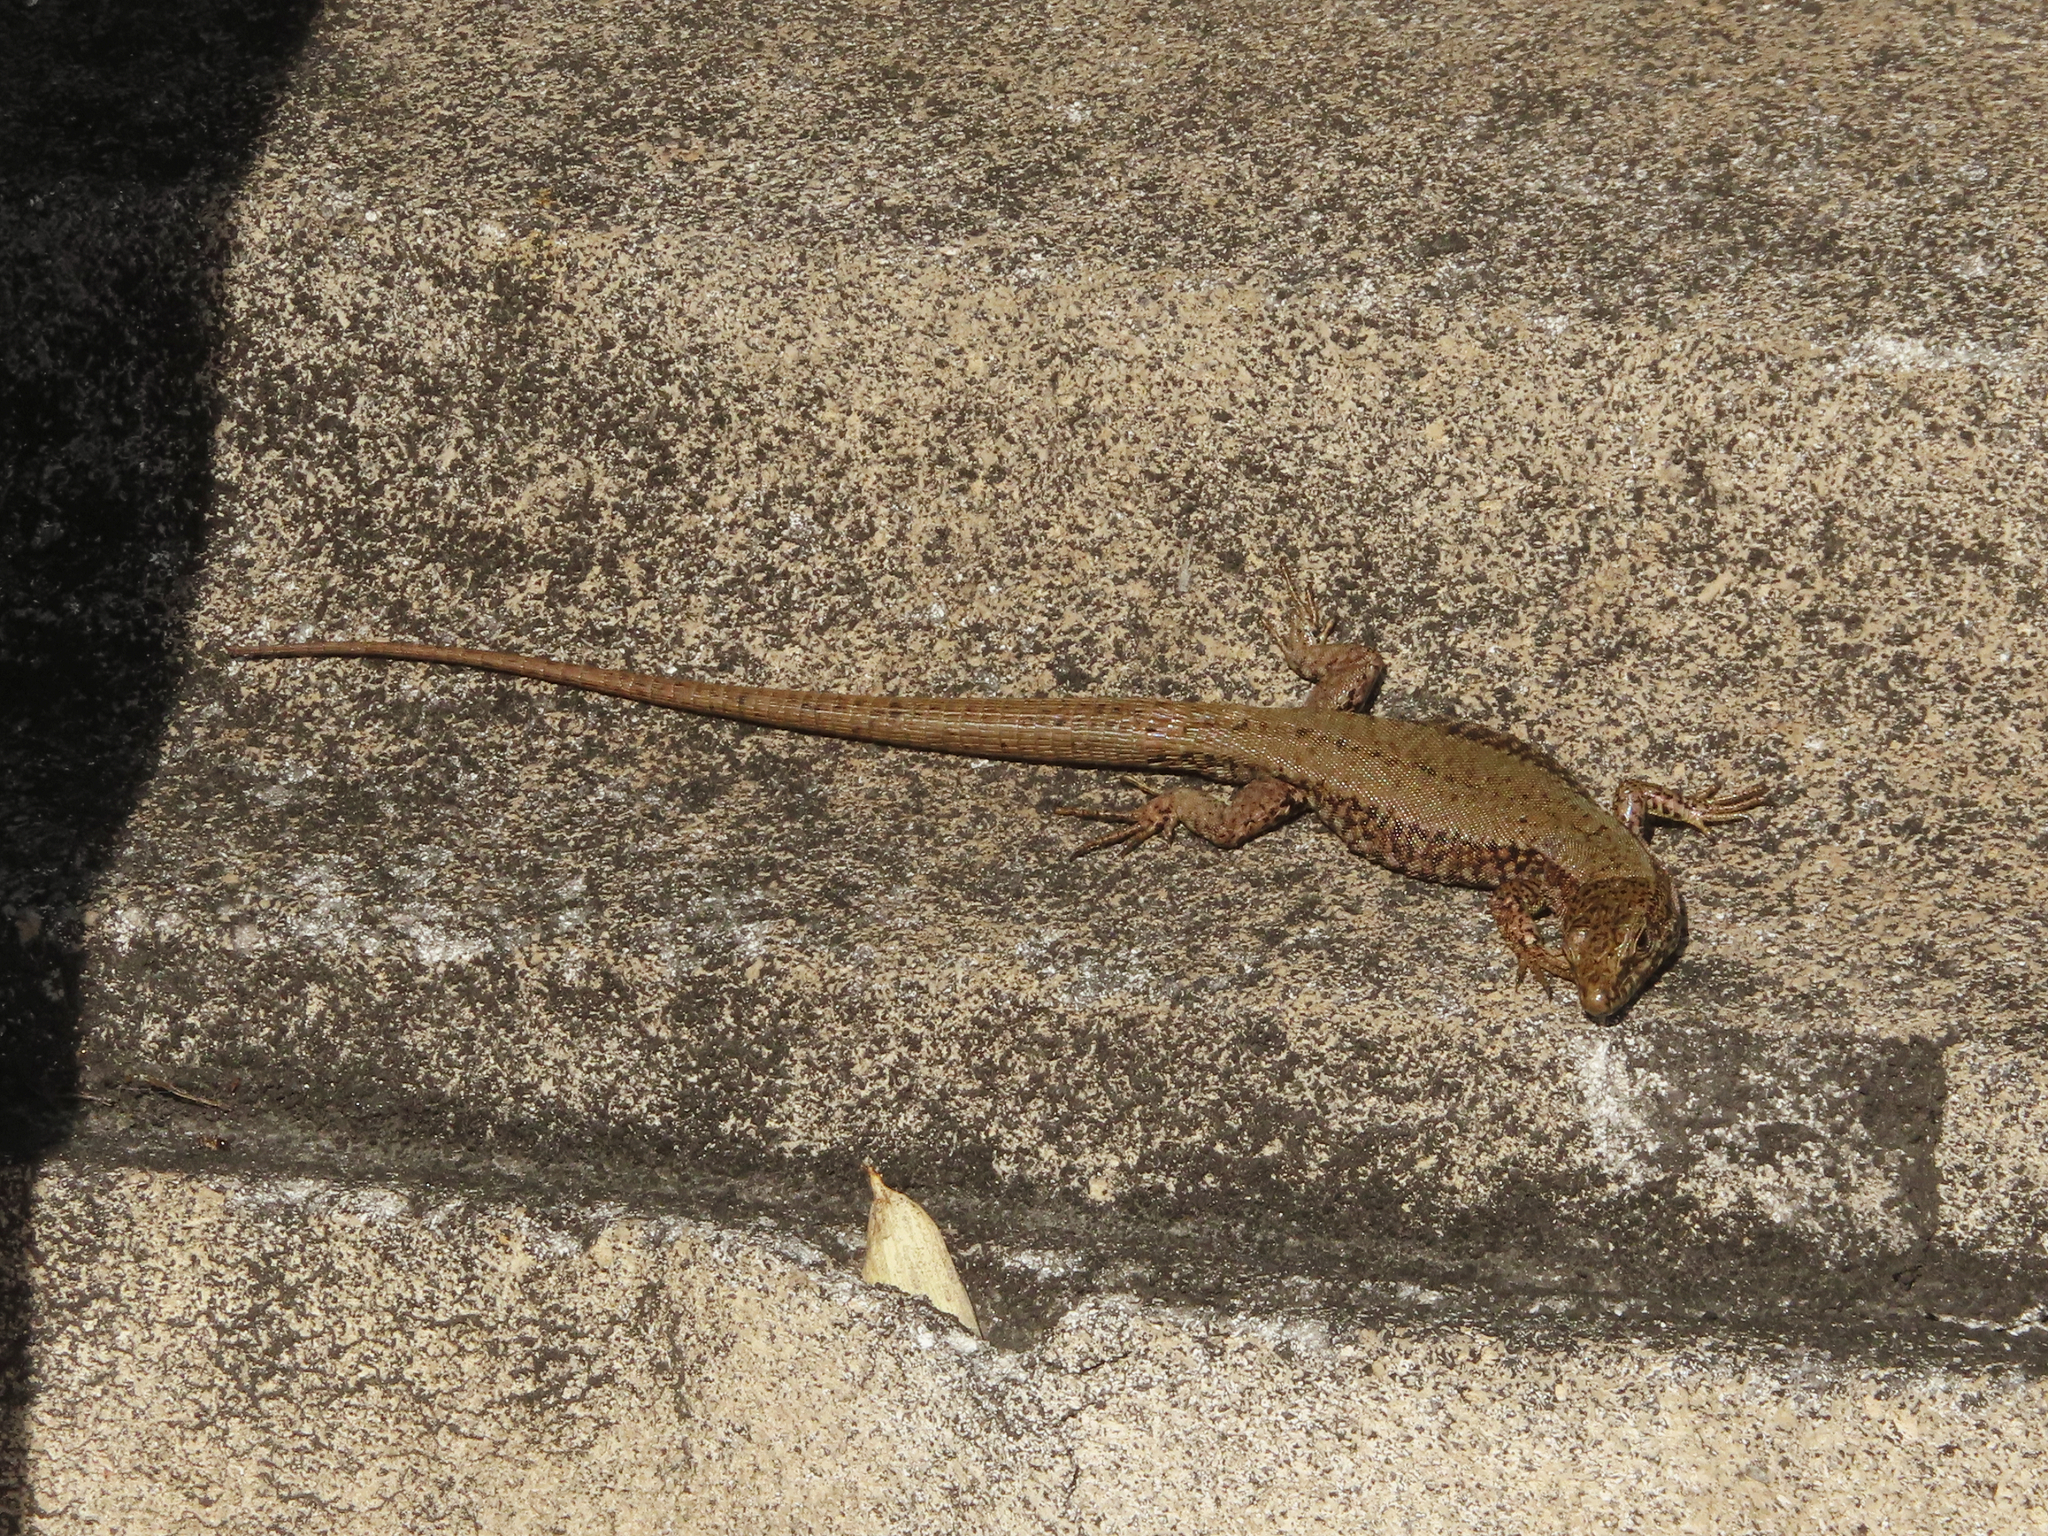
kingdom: Animalia
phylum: Chordata
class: Squamata
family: Lacertidae
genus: Podarcis
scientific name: Podarcis muralis
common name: Common wall lizard
